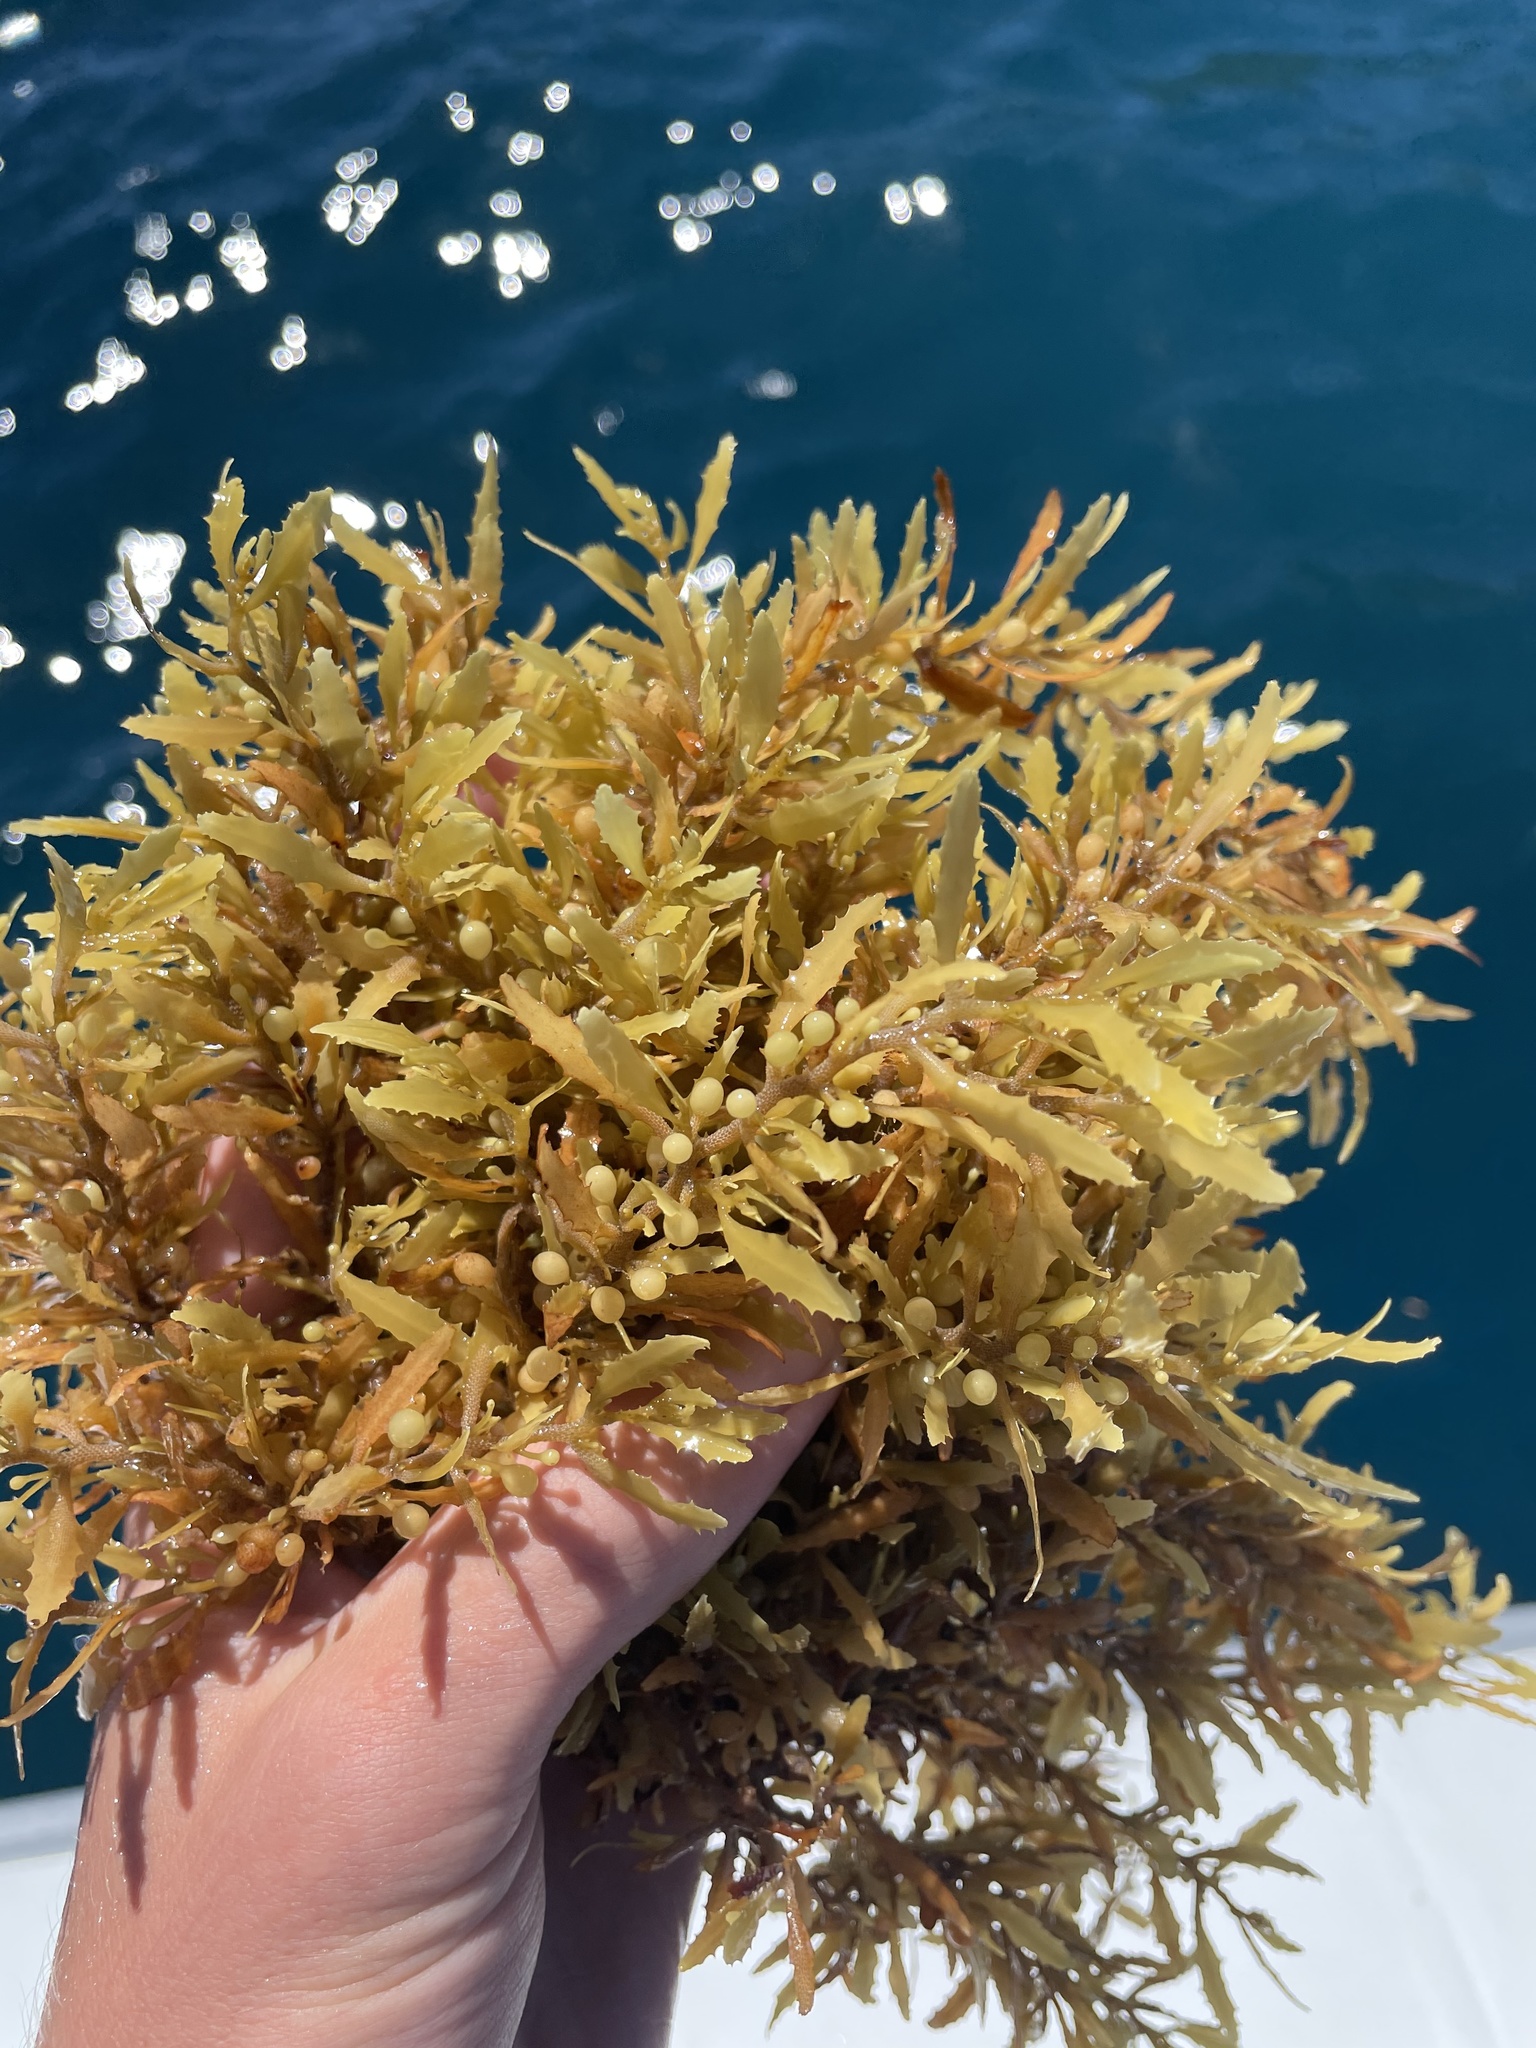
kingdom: Chromista
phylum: Ochrophyta
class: Phaeophyceae
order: Fucales
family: Sargassaceae
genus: Sargassum
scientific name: Sargassum fluitans
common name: Sargassum seaweed
